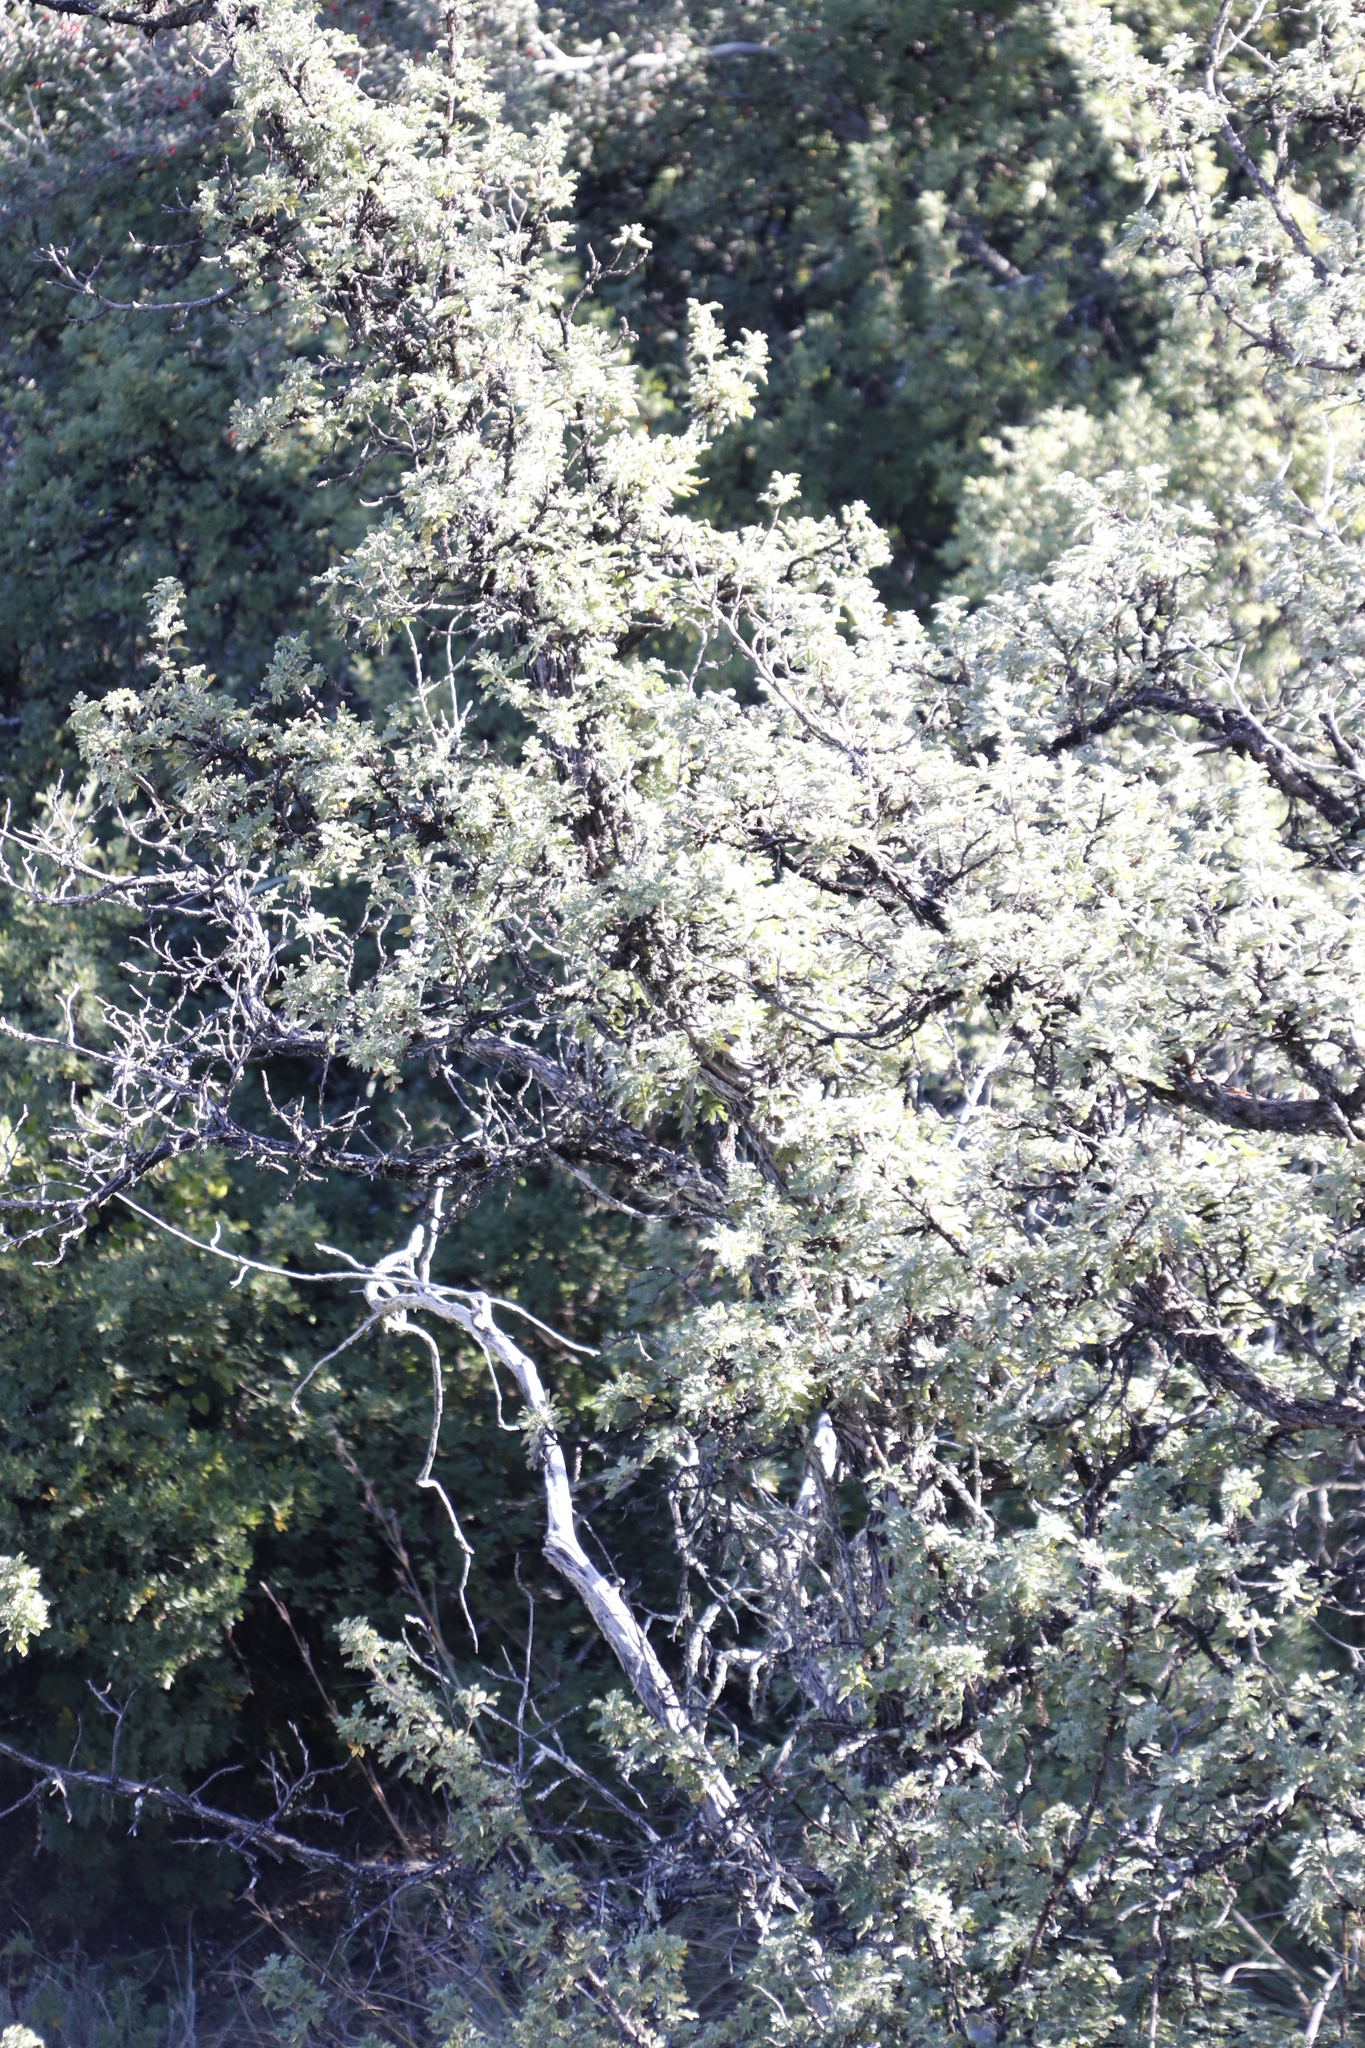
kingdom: Plantae
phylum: Tracheophyta
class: Magnoliopsida
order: Rosales
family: Rosaceae
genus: Leucosidea
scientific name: Leucosidea sericea
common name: Oldwood
